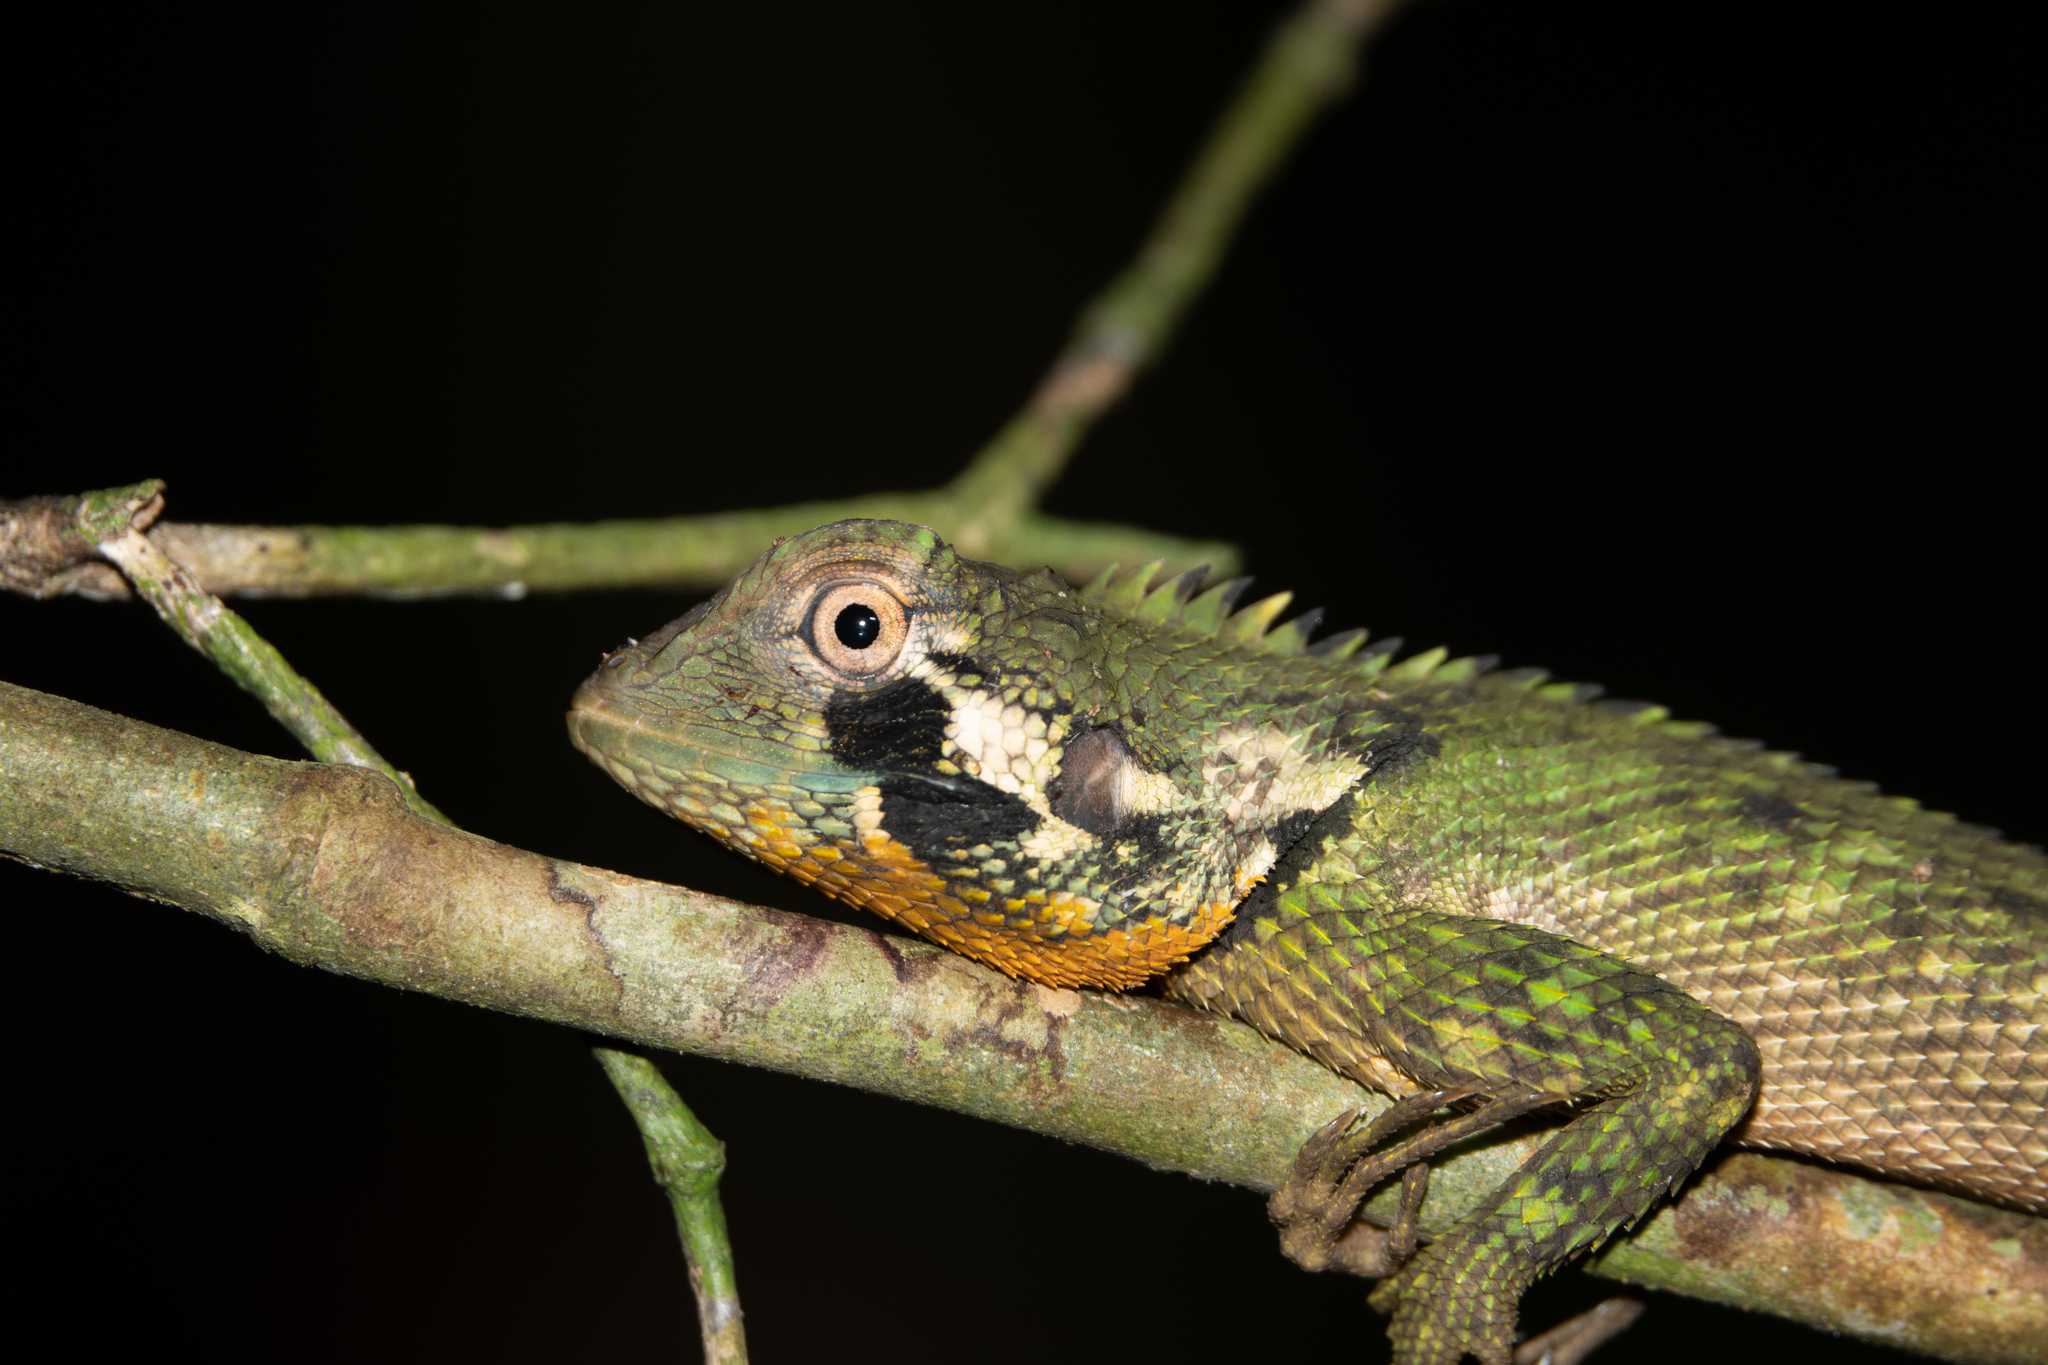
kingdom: Animalia
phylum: Chordata
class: Squamata
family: Tropiduridae
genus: Plica
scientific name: Plica umbra
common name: Harlequin racerunner
